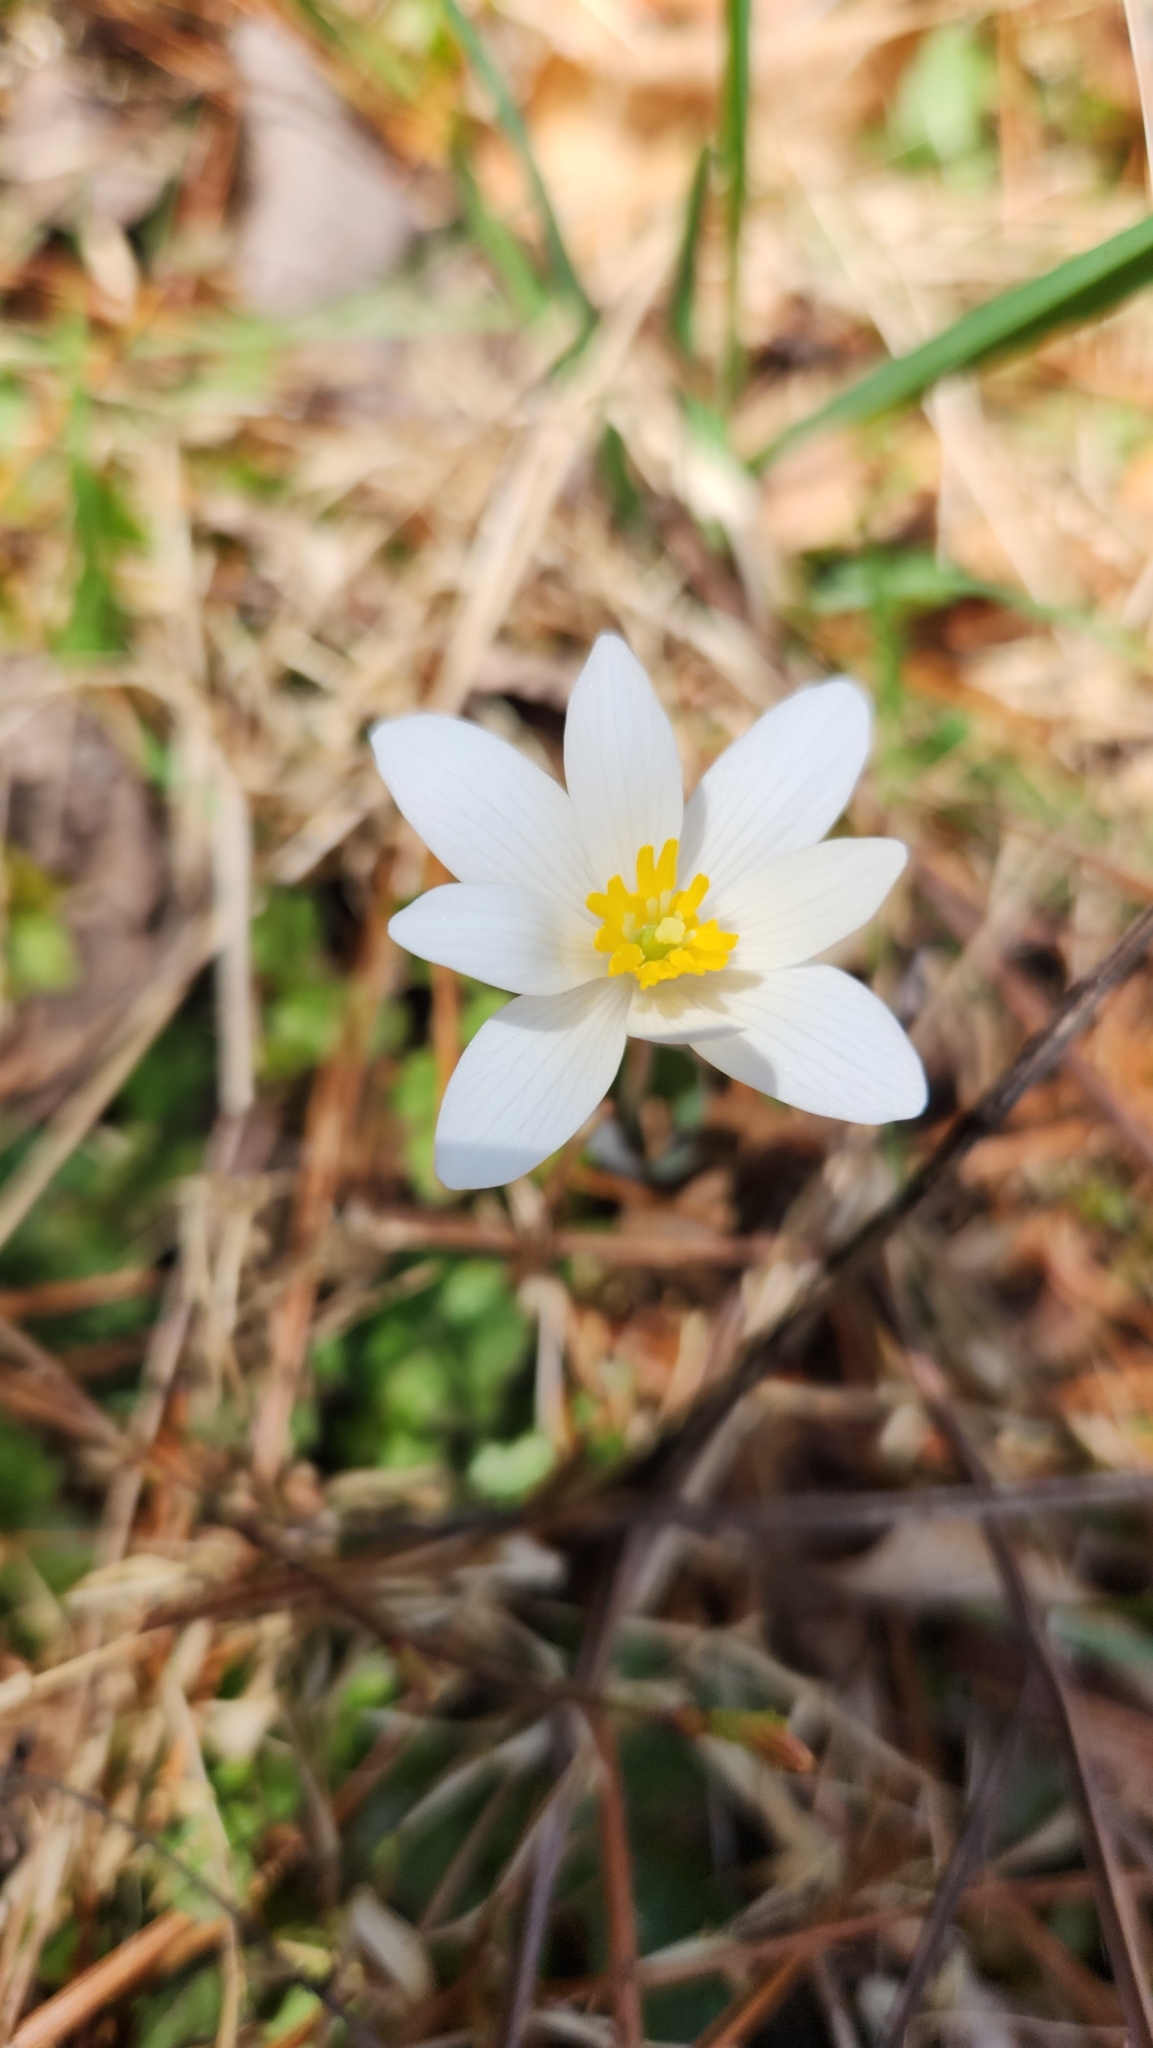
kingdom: Plantae
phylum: Tracheophyta
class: Magnoliopsida
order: Ranunculales
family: Papaveraceae
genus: Sanguinaria
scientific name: Sanguinaria canadensis
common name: Bloodroot
